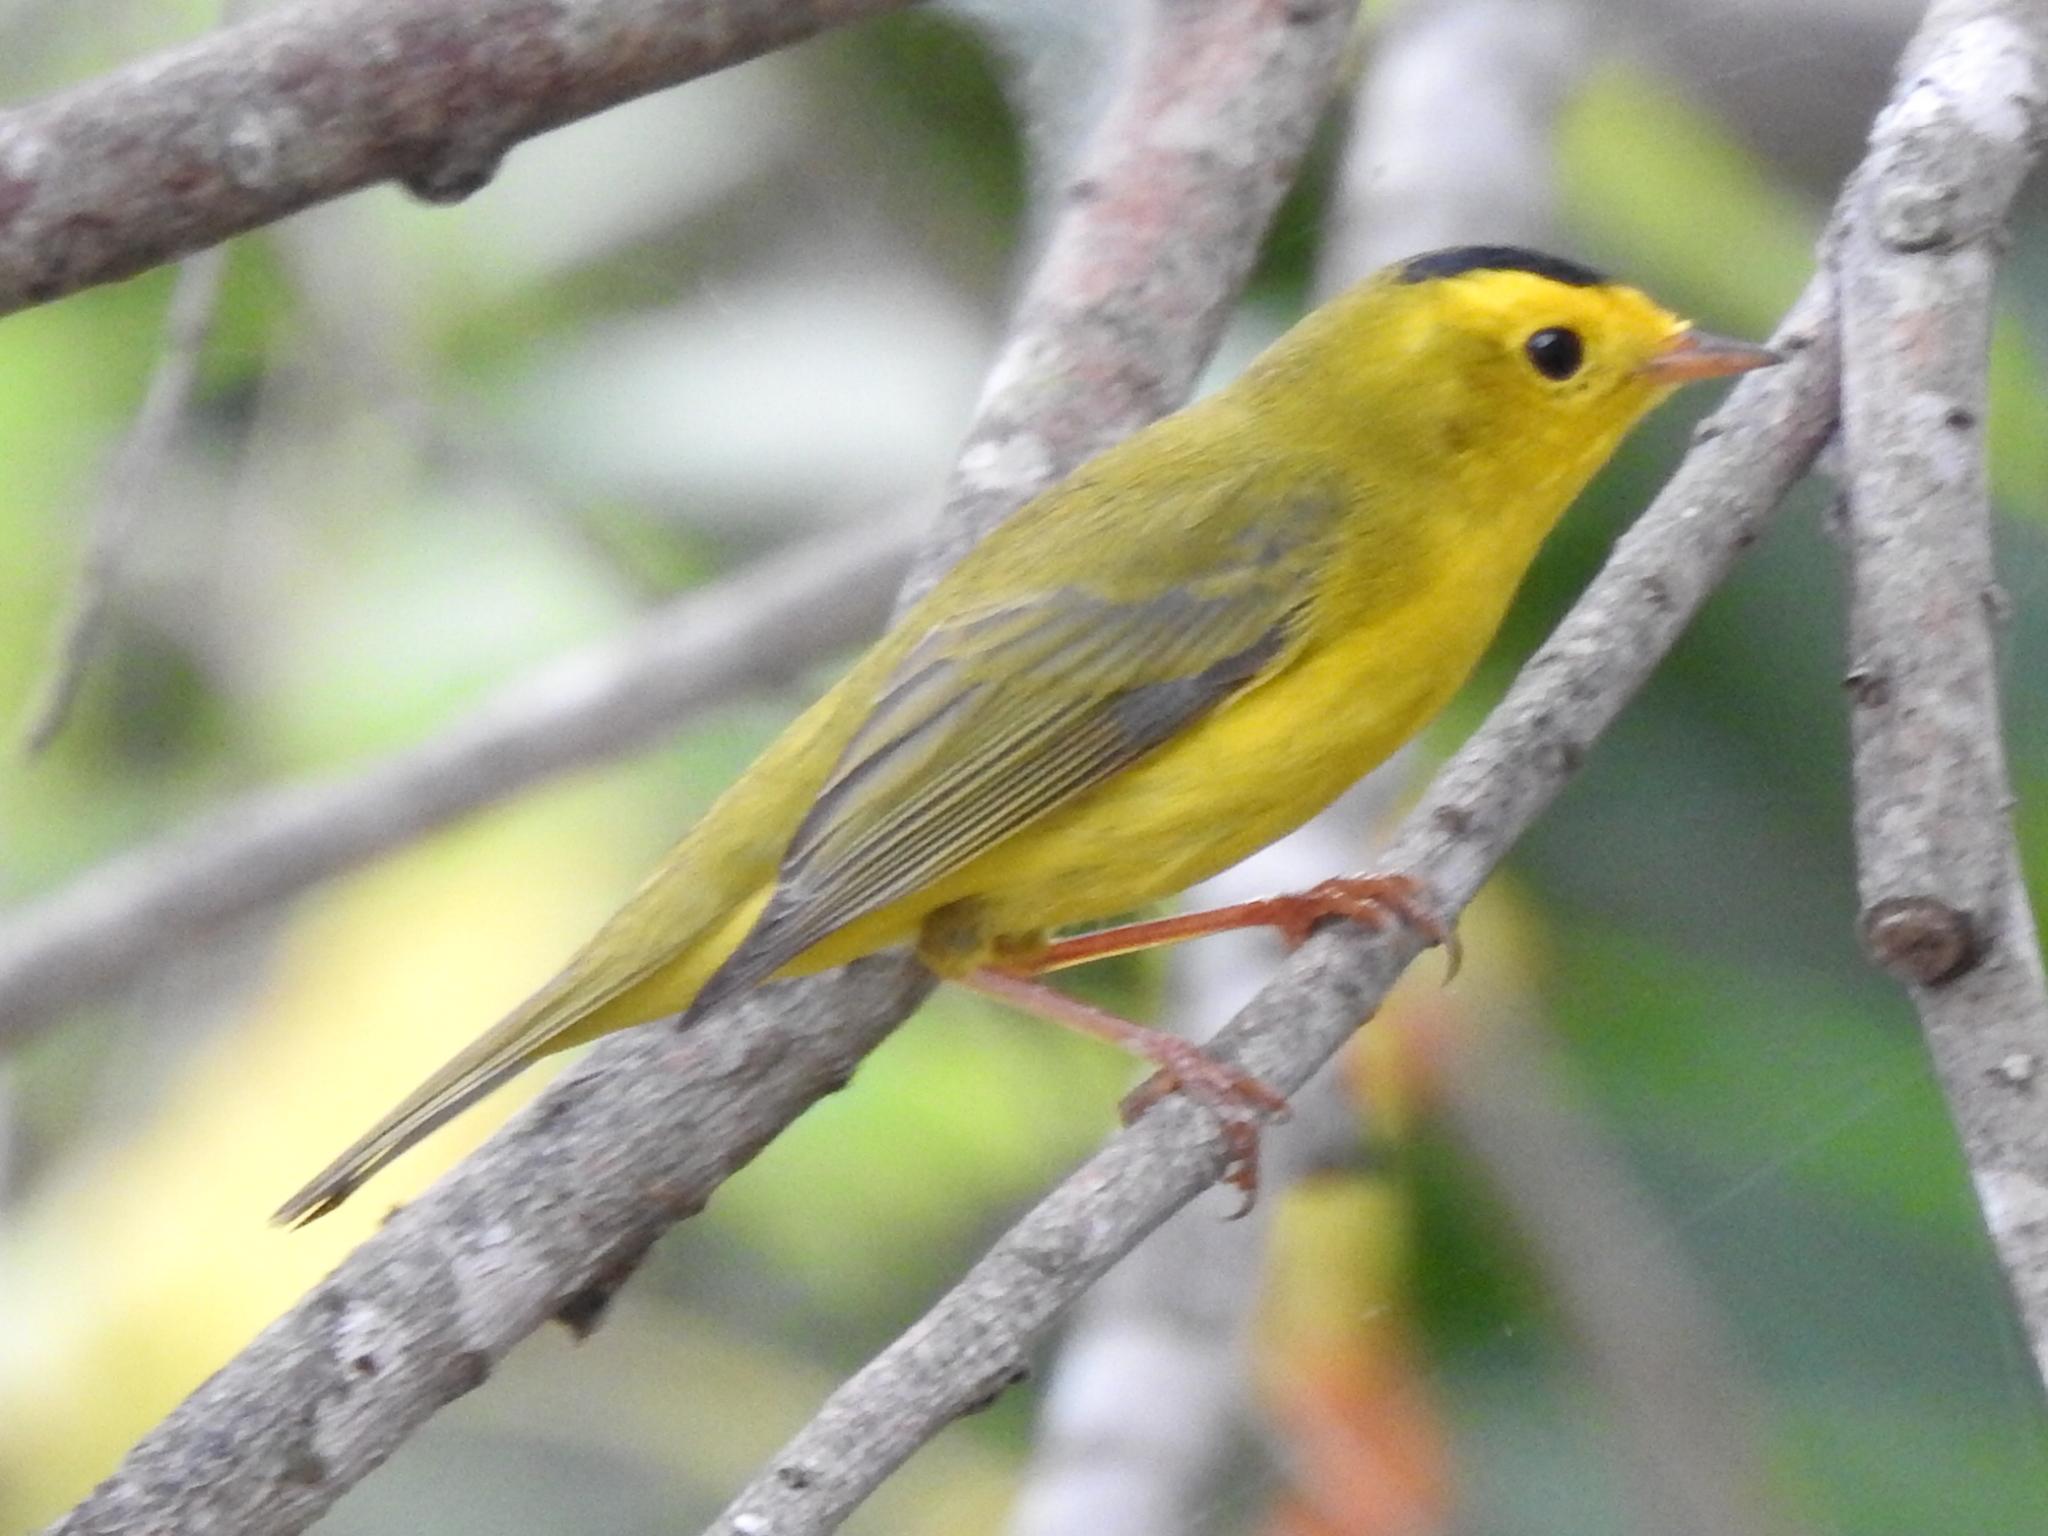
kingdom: Animalia
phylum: Chordata
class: Aves
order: Passeriformes
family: Parulidae
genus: Cardellina
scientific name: Cardellina pusilla
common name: Wilson's warbler
